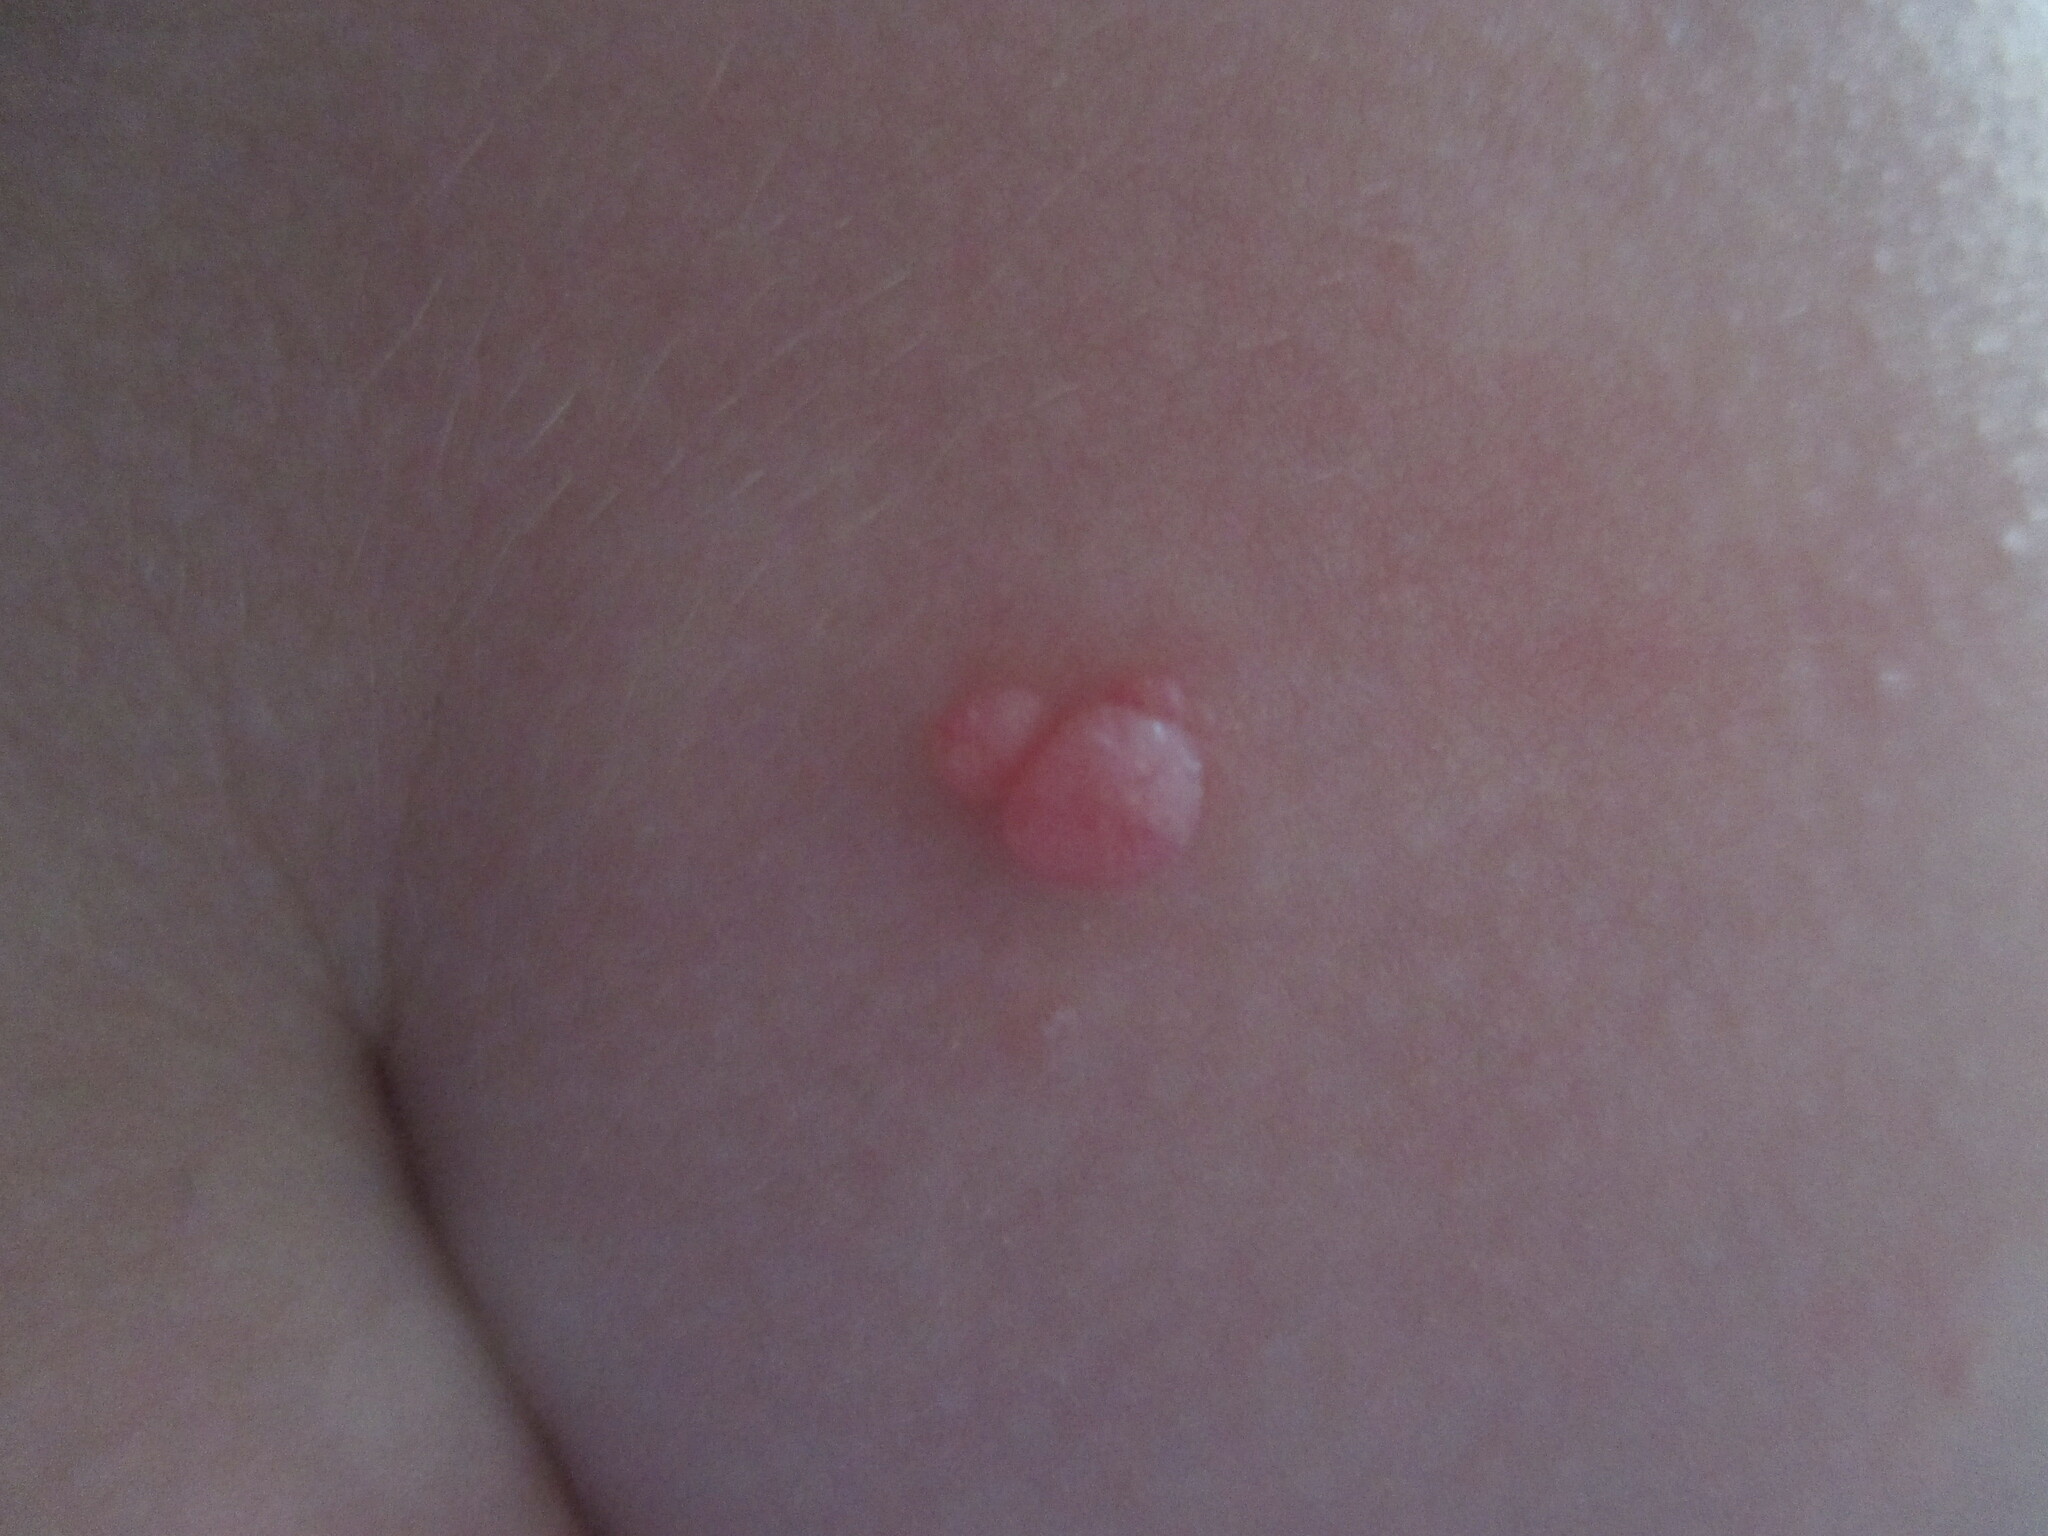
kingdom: Viruses
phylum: Nucleocytoviricota
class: Pokkesviricetes
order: Chitovirales
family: Poxviridae
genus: Molluscipoxvirus
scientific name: Molluscipoxvirus Molluscum contagiosum virus
